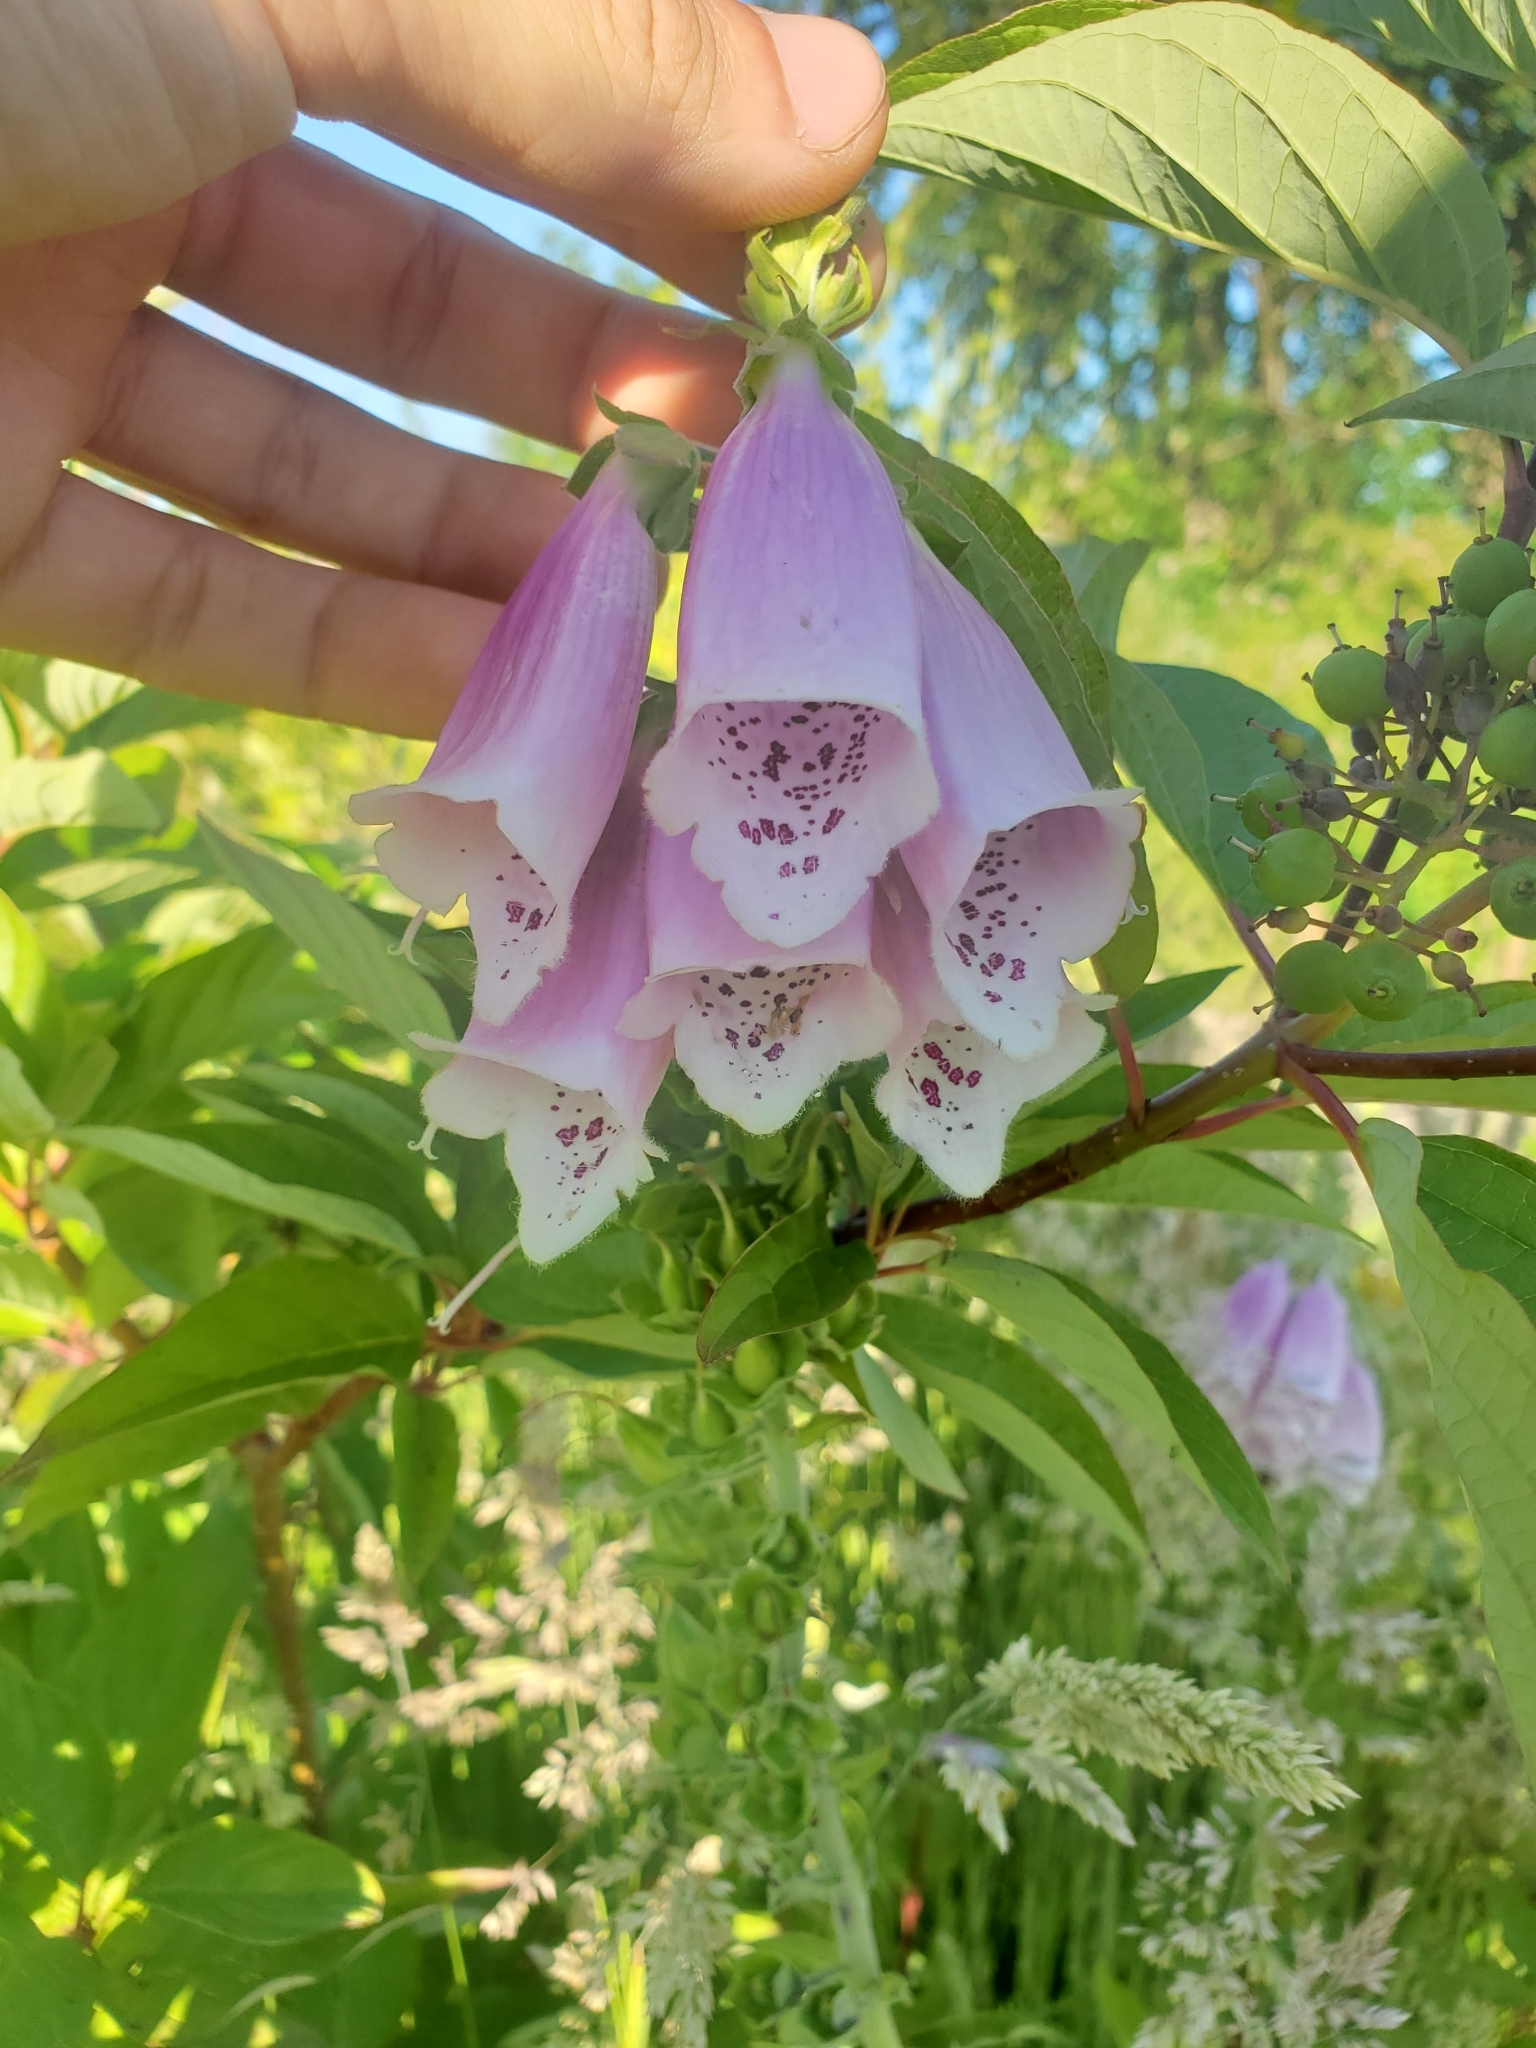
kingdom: Plantae
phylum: Tracheophyta
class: Magnoliopsida
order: Lamiales
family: Plantaginaceae
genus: Digitalis
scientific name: Digitalis purpurea
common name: Foxglove
